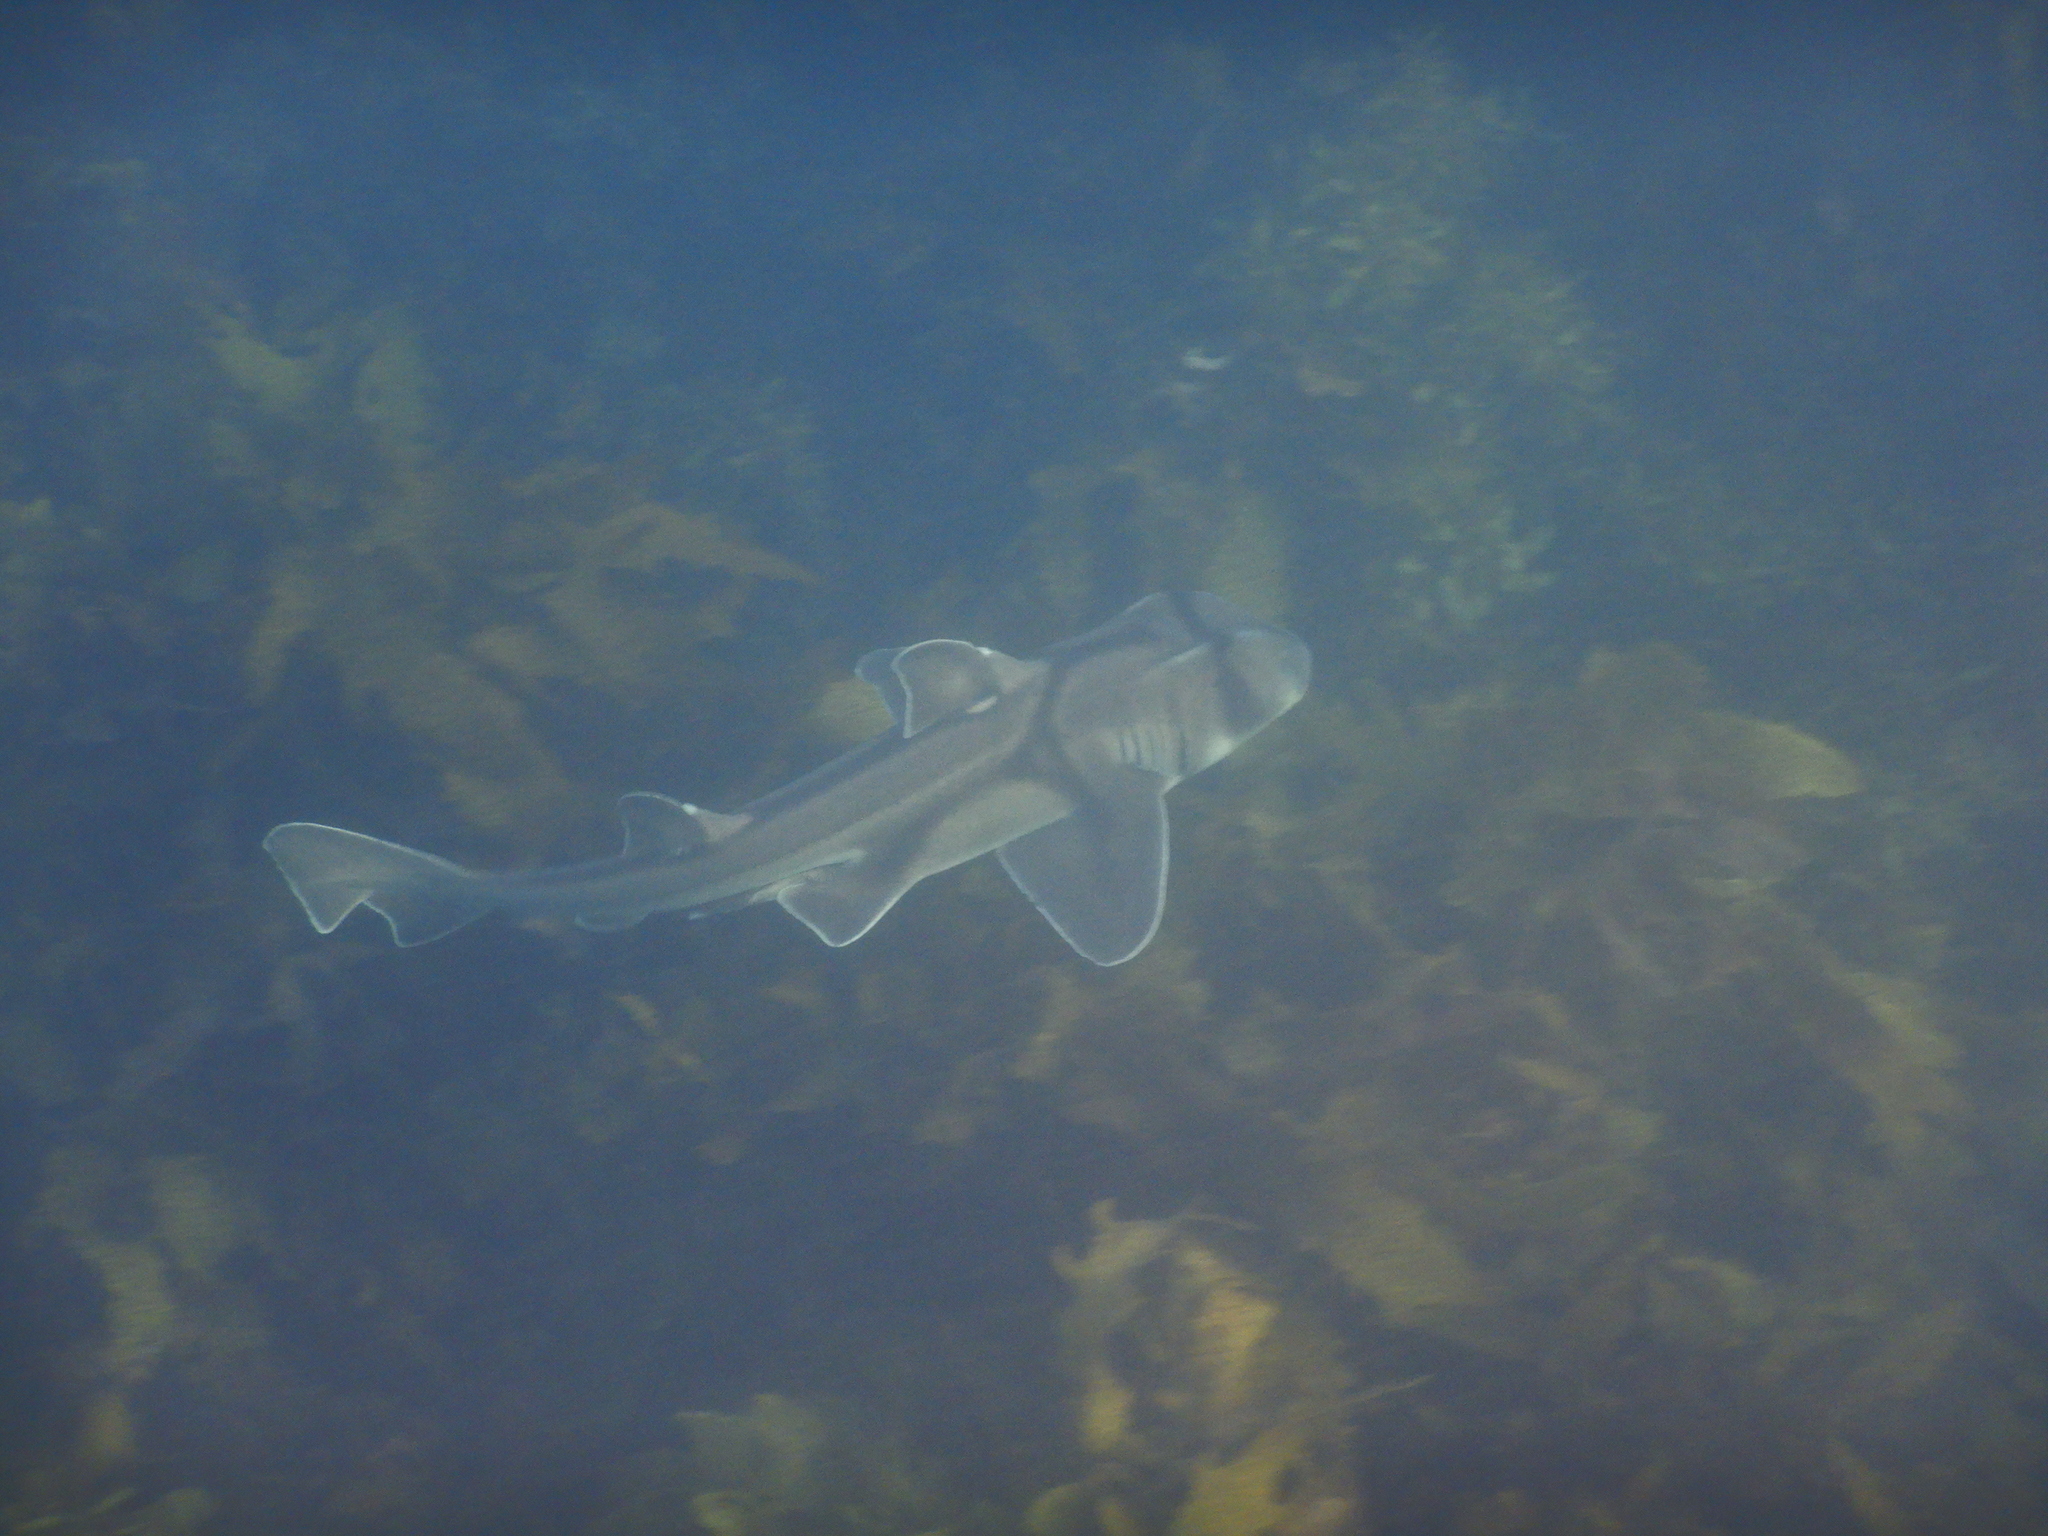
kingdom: Animalia
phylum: Chordata
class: Elasmobranchii
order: Heterodontiformes
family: Heterodontidae
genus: Heterodontus
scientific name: Heterodontus portusjacksoni
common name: Port jackson shark
